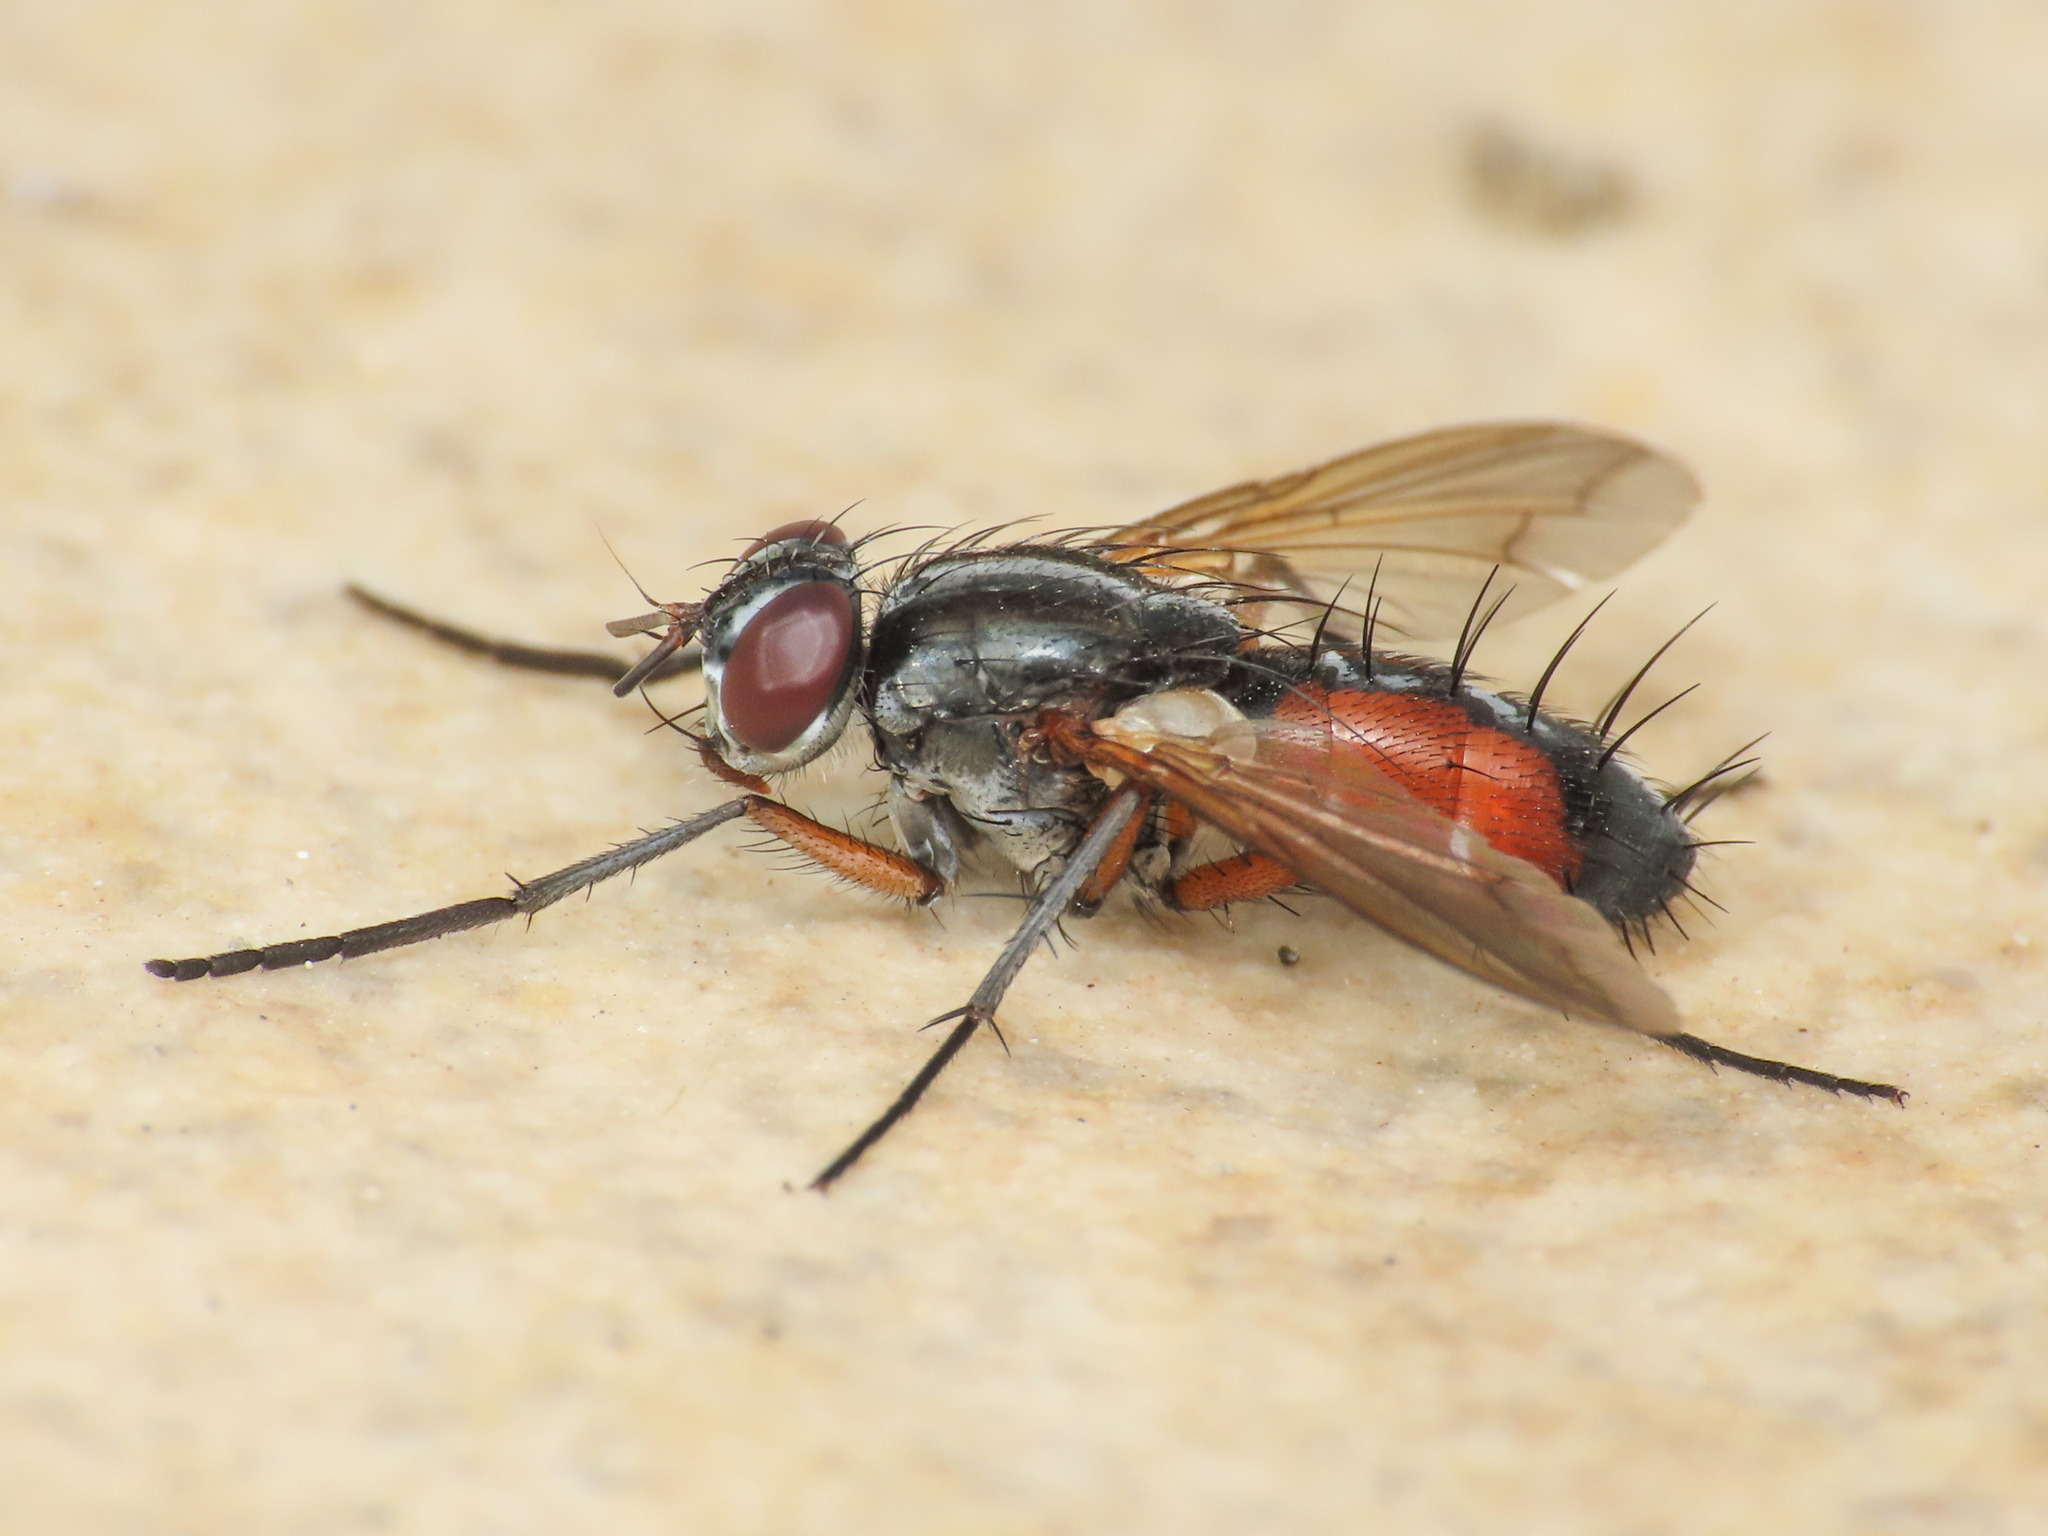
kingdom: Animalia
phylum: Arthropoda
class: Insecta
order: Diptera
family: Tachinidae
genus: Mintho
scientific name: Mintho rufiventris
